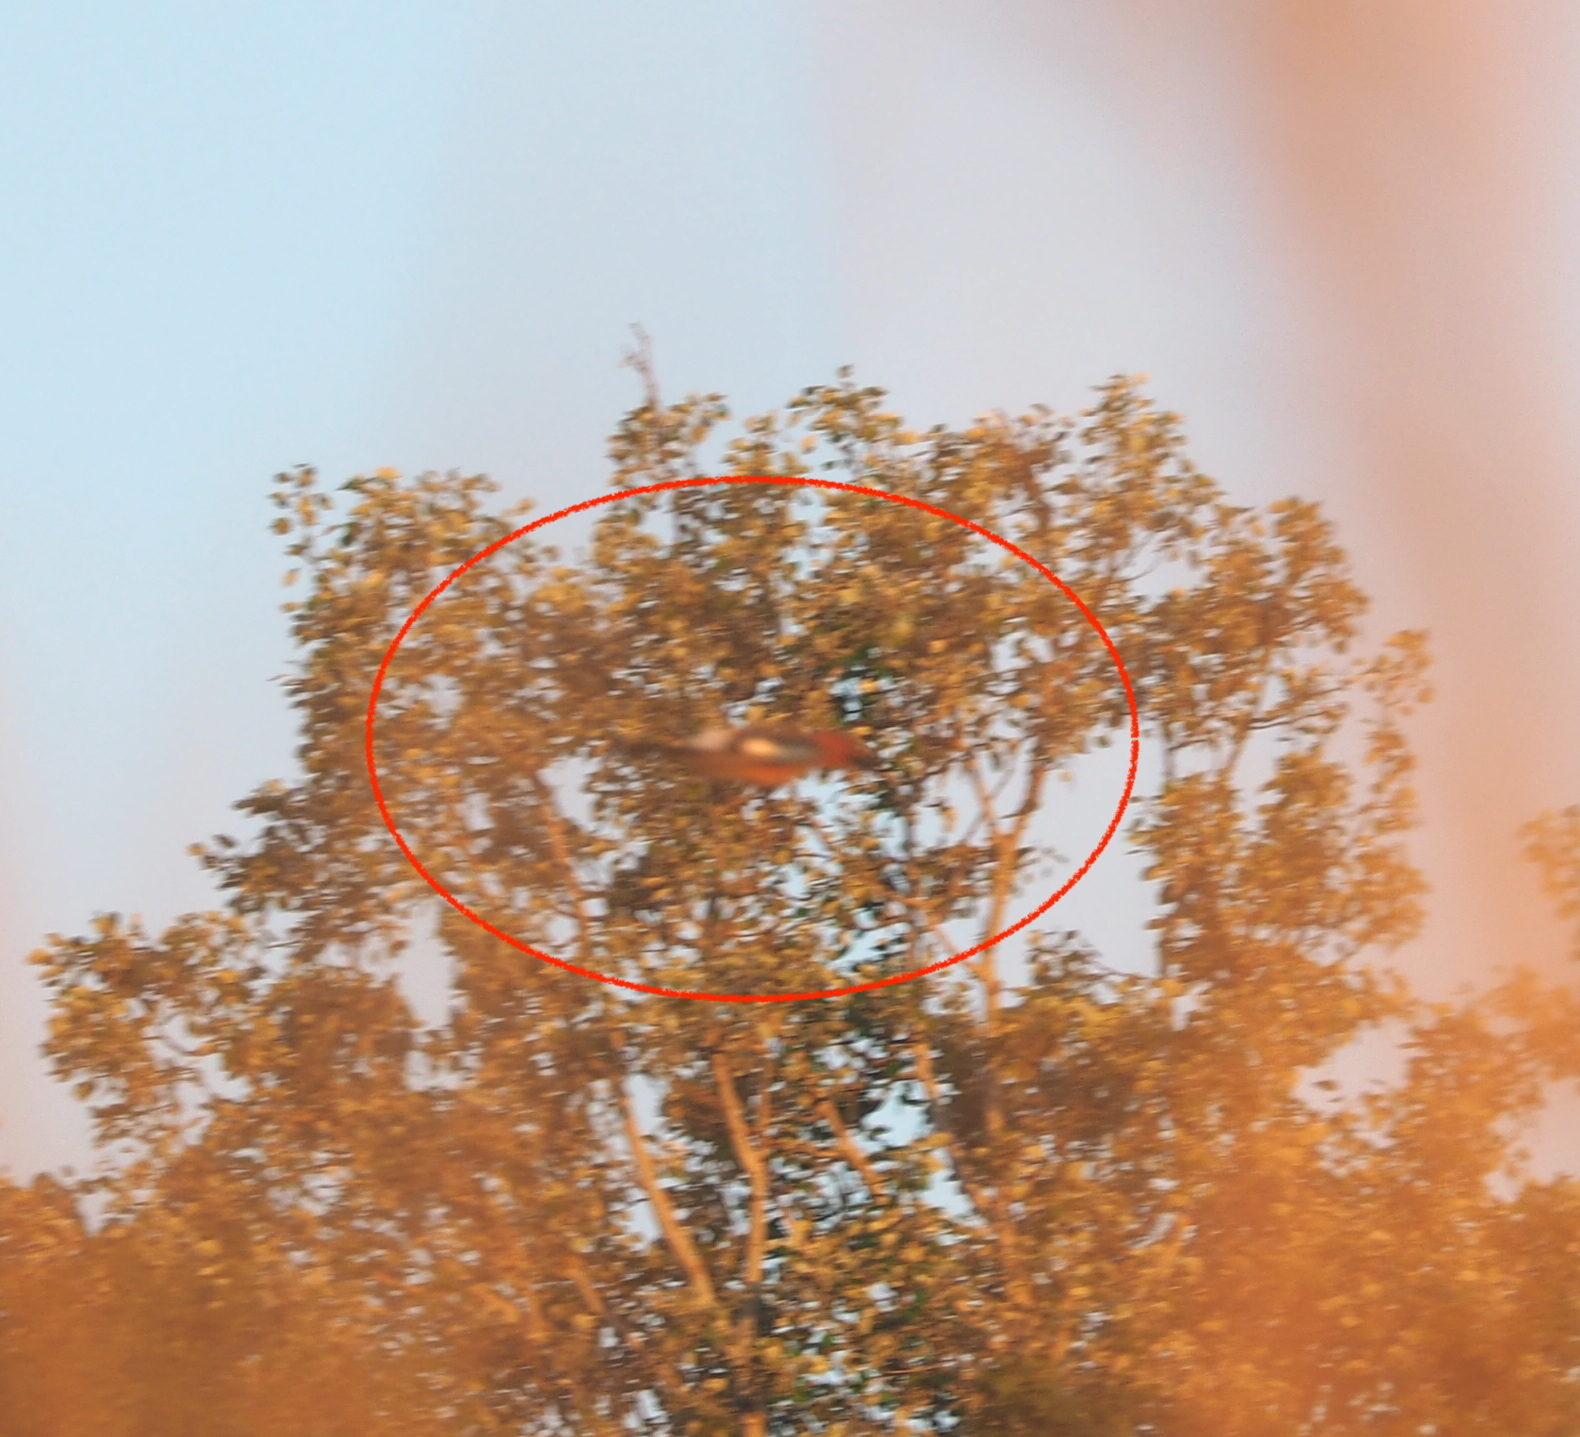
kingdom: Animalia
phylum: Chordata
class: Aves
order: Passeriformes
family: Corvidae
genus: Garrulus
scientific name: Garrulus glandarius
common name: Eurasian jay
